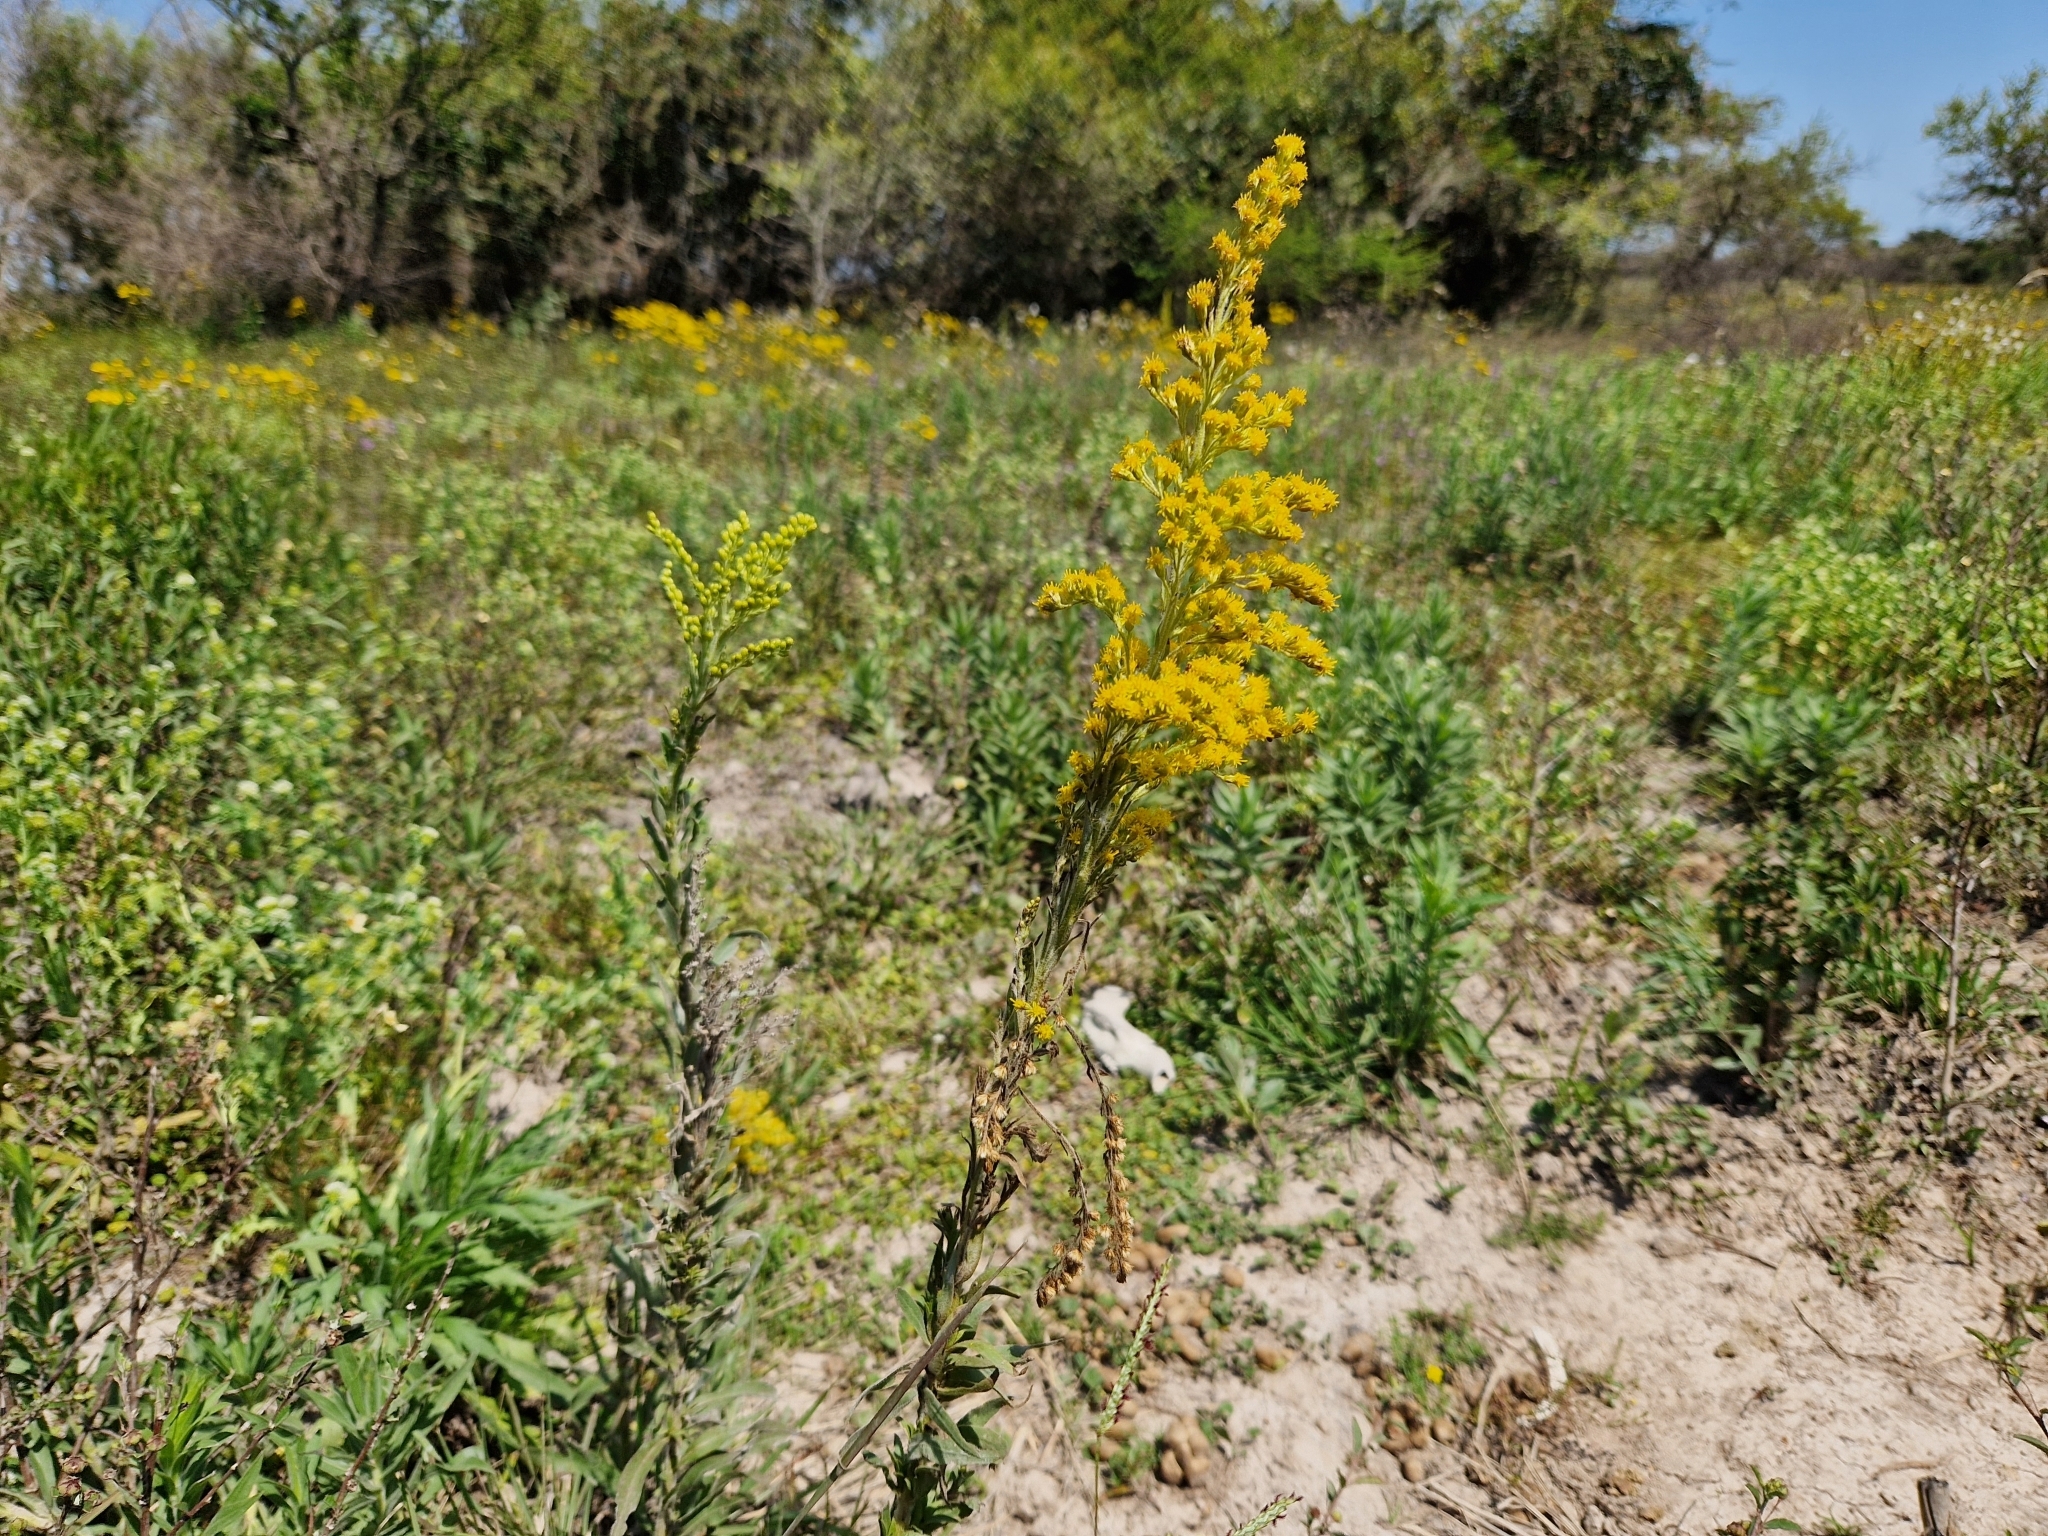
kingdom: Plantae
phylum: Tracheophyta
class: Magnoliopsida
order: Asterales
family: Asteraceae
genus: Solidago
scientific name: Solidago chilensis
